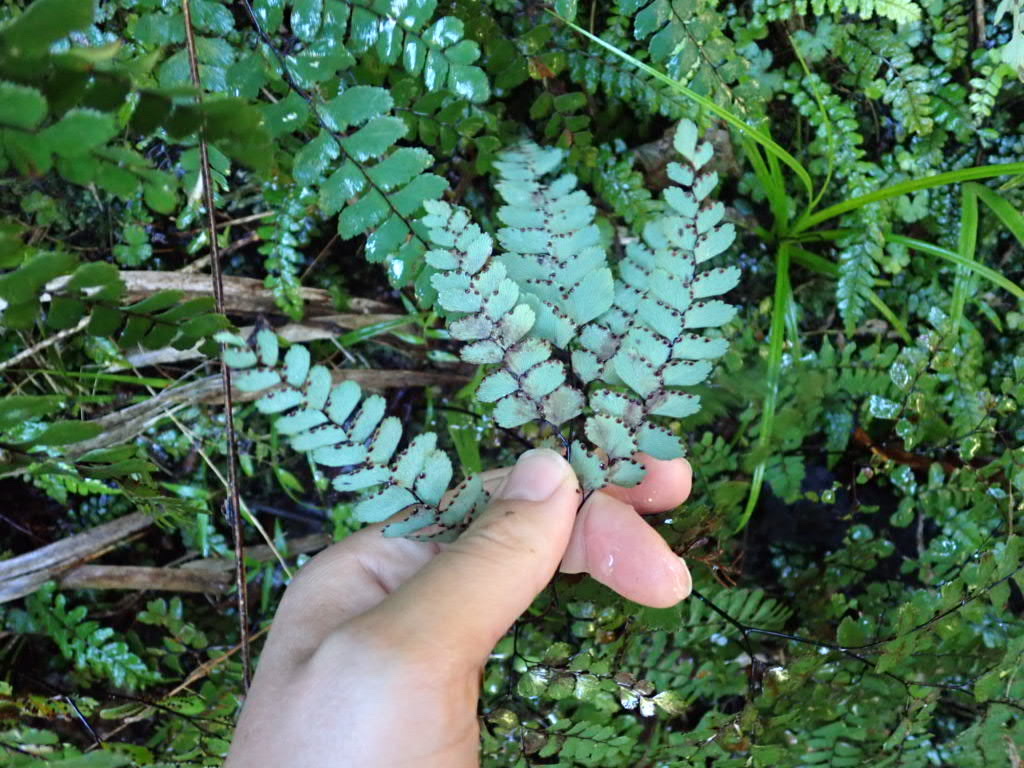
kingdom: Plantae
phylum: Tracheophyta
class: Polypodiopsida
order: Polypodiales
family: Pteridaceae
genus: Adiantum
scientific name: Adiantum cunninghamii
